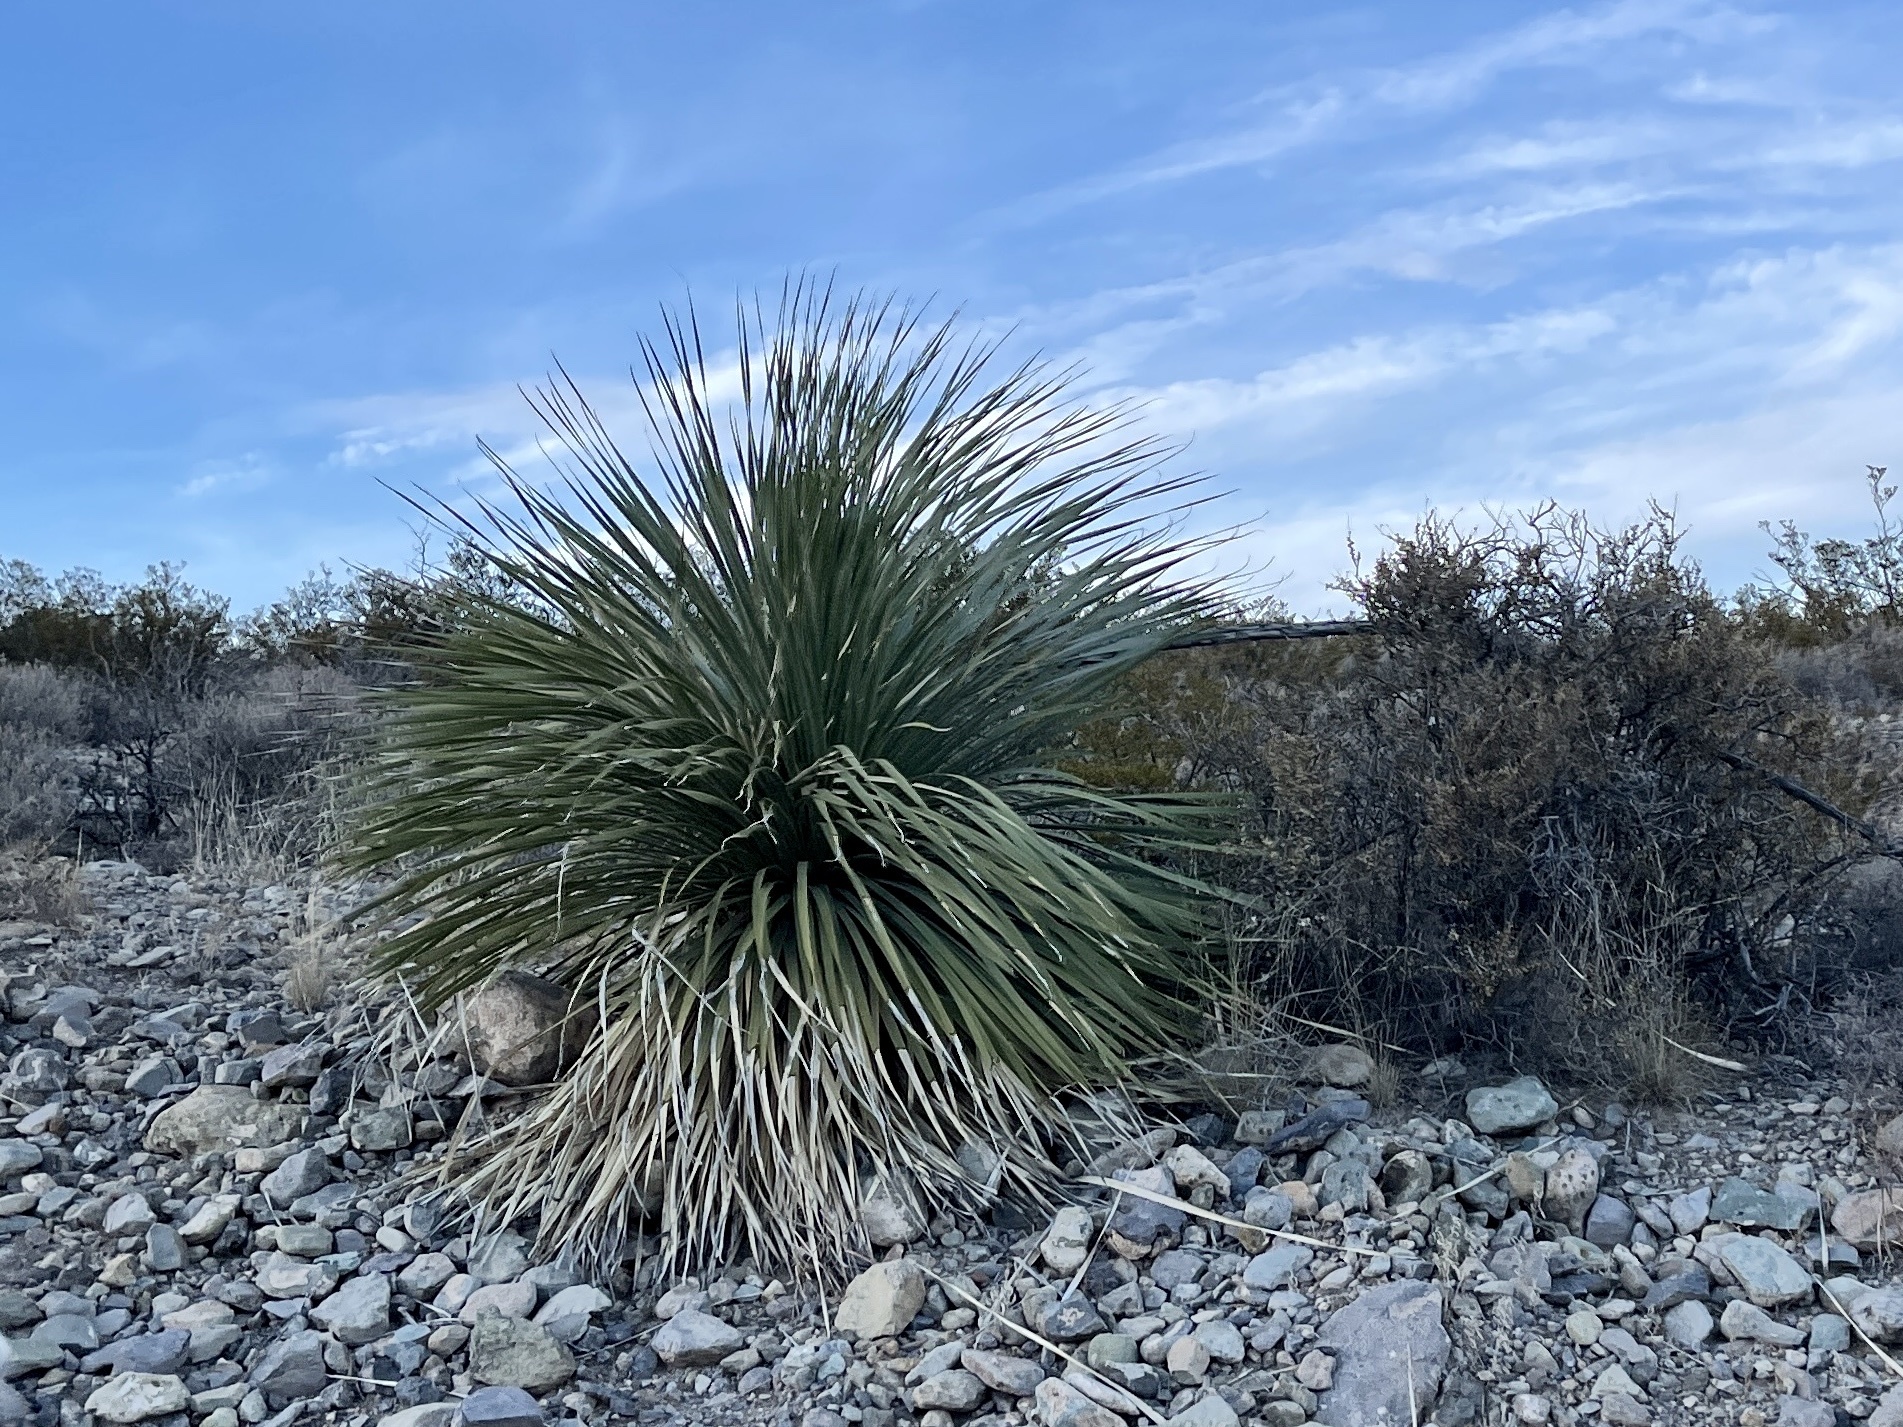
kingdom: Plantae
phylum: Tracheophyta
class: Liliopsida
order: Asparagales
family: Asparagaceae
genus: Dasylirion
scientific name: Dasylirion wheeleri
